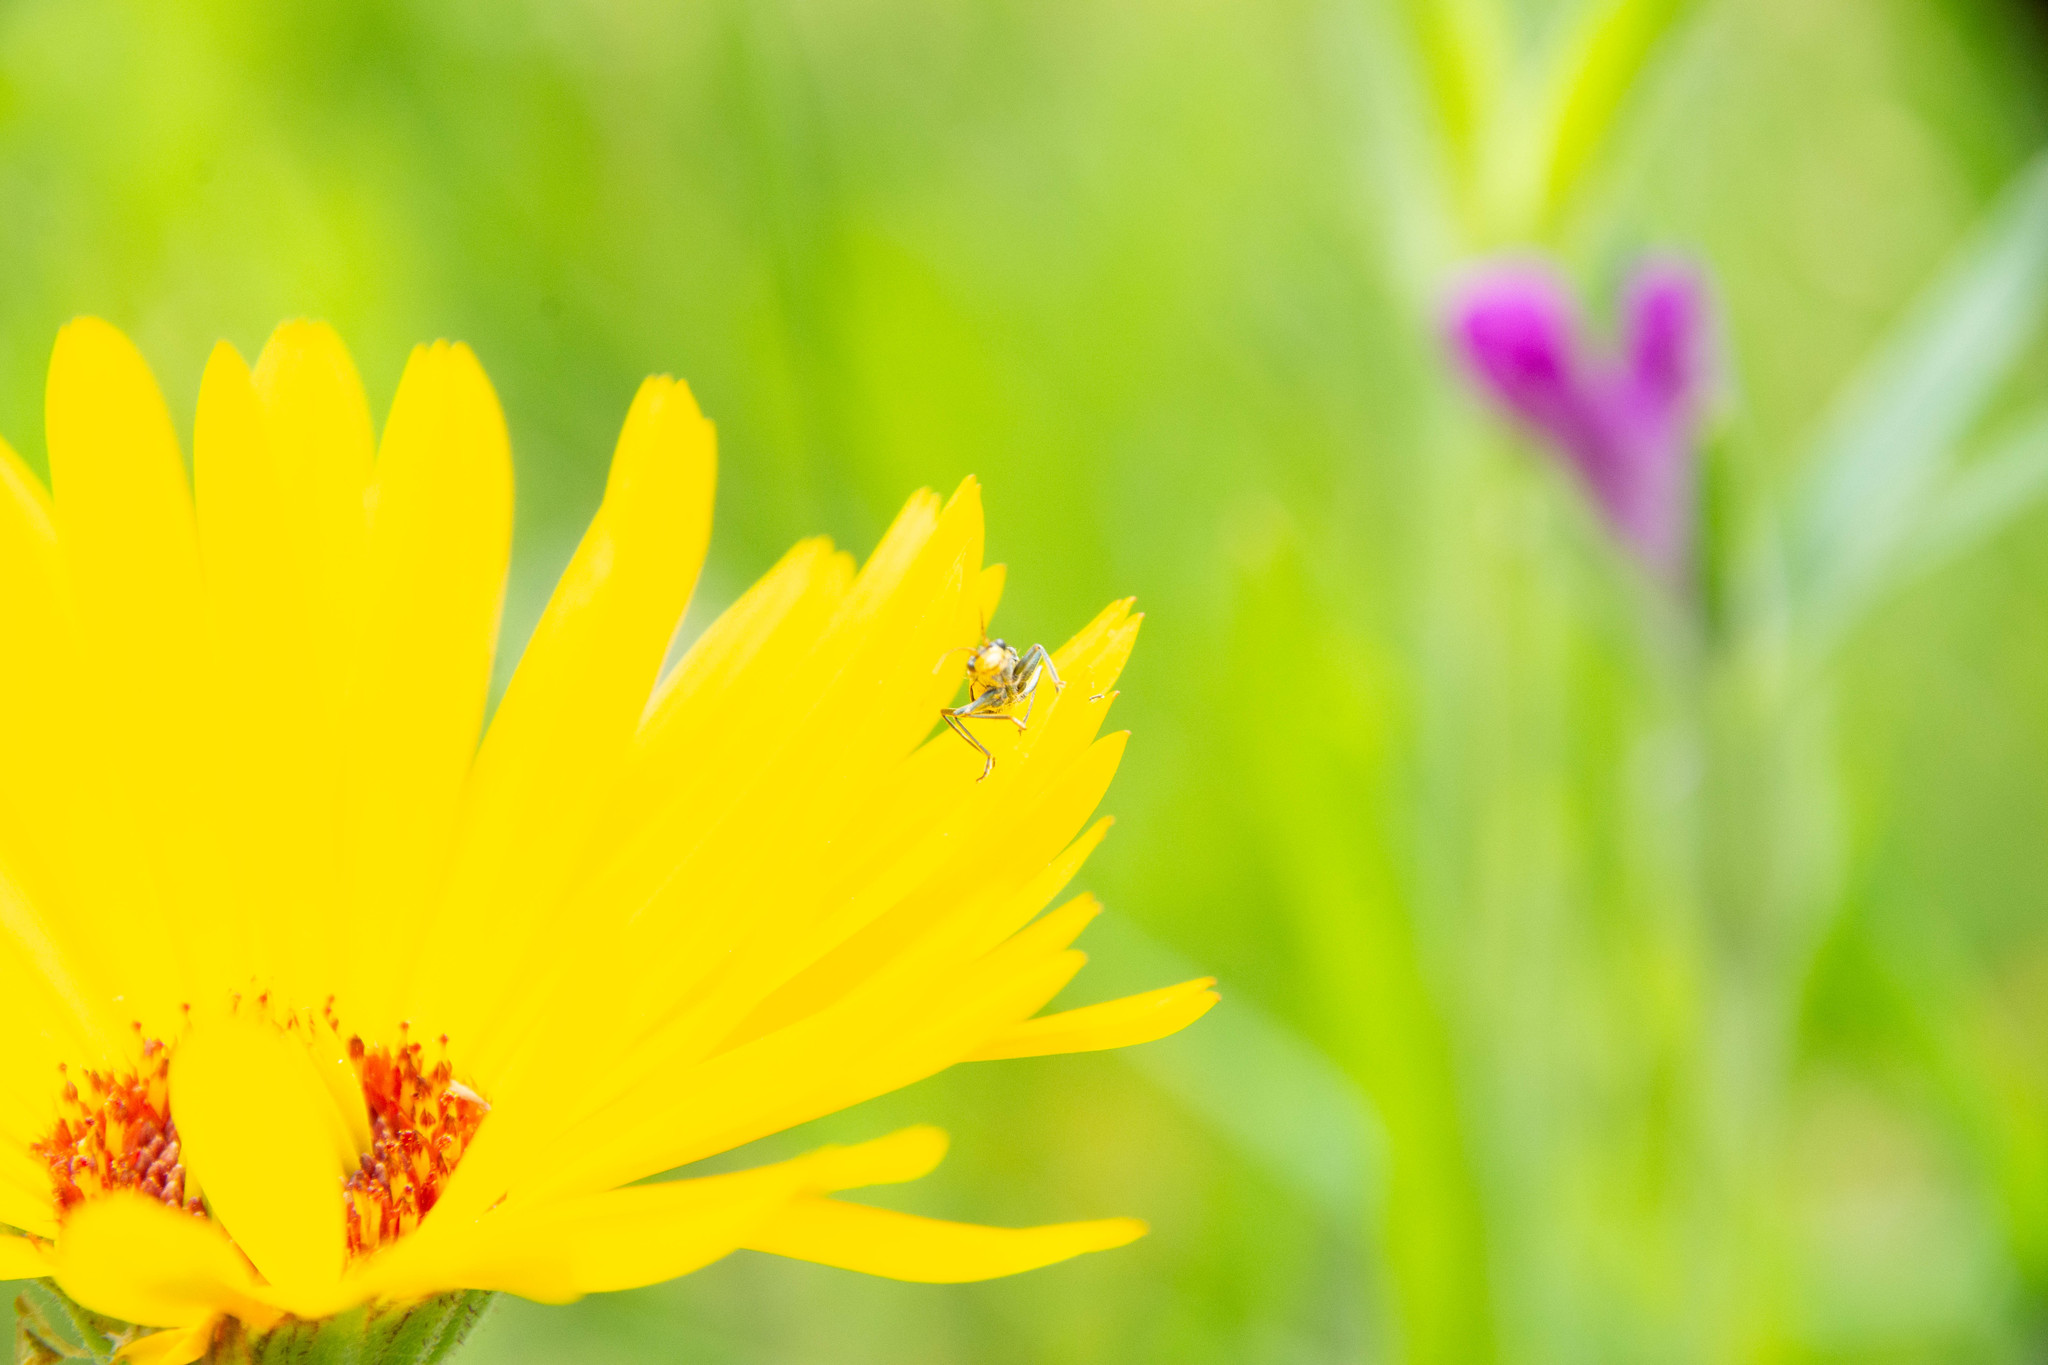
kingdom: Animalia
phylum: Arthropoda
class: Insecta
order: Coleoptera
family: Malachiidae
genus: Clanoptilus
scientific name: Clanoptilus marginellus
